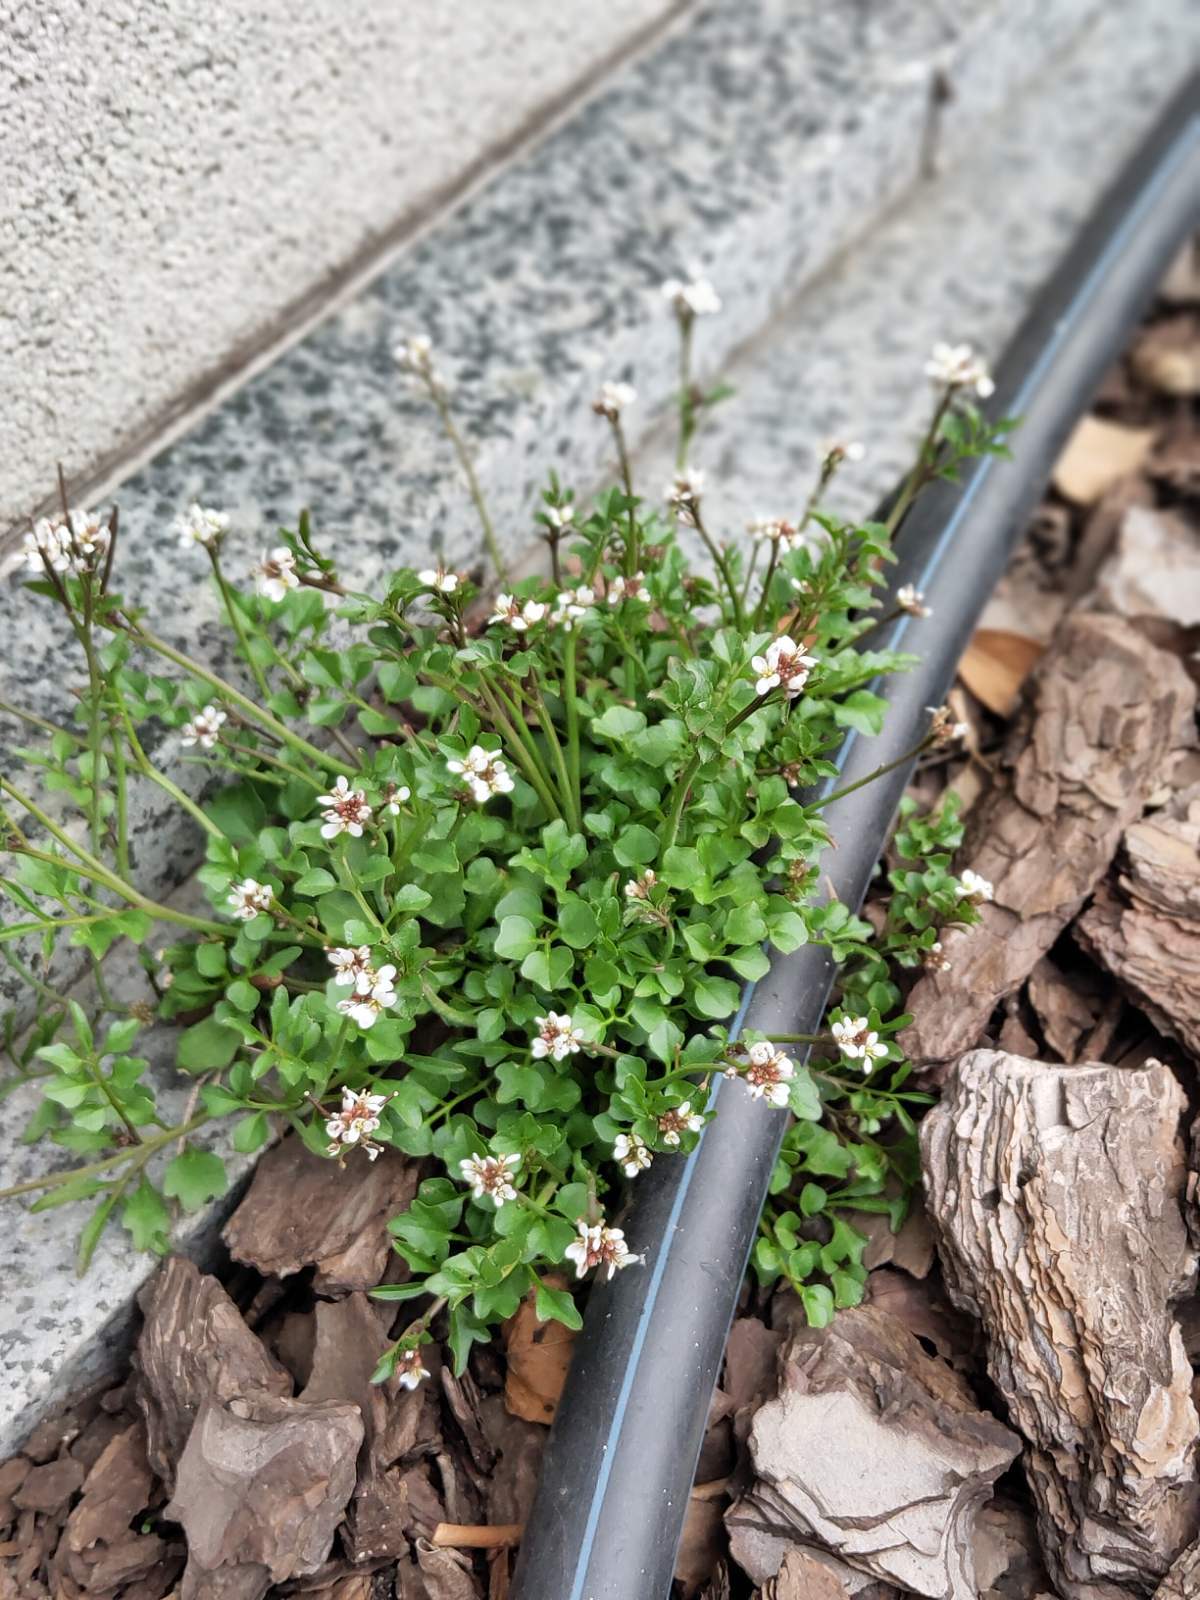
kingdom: Plantae
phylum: Tracheophyta
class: Magnoliopsida
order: Brassicales
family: Brassicaceae
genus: Cardamine
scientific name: Cardamine hirsuta
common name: Hairy bittercress
